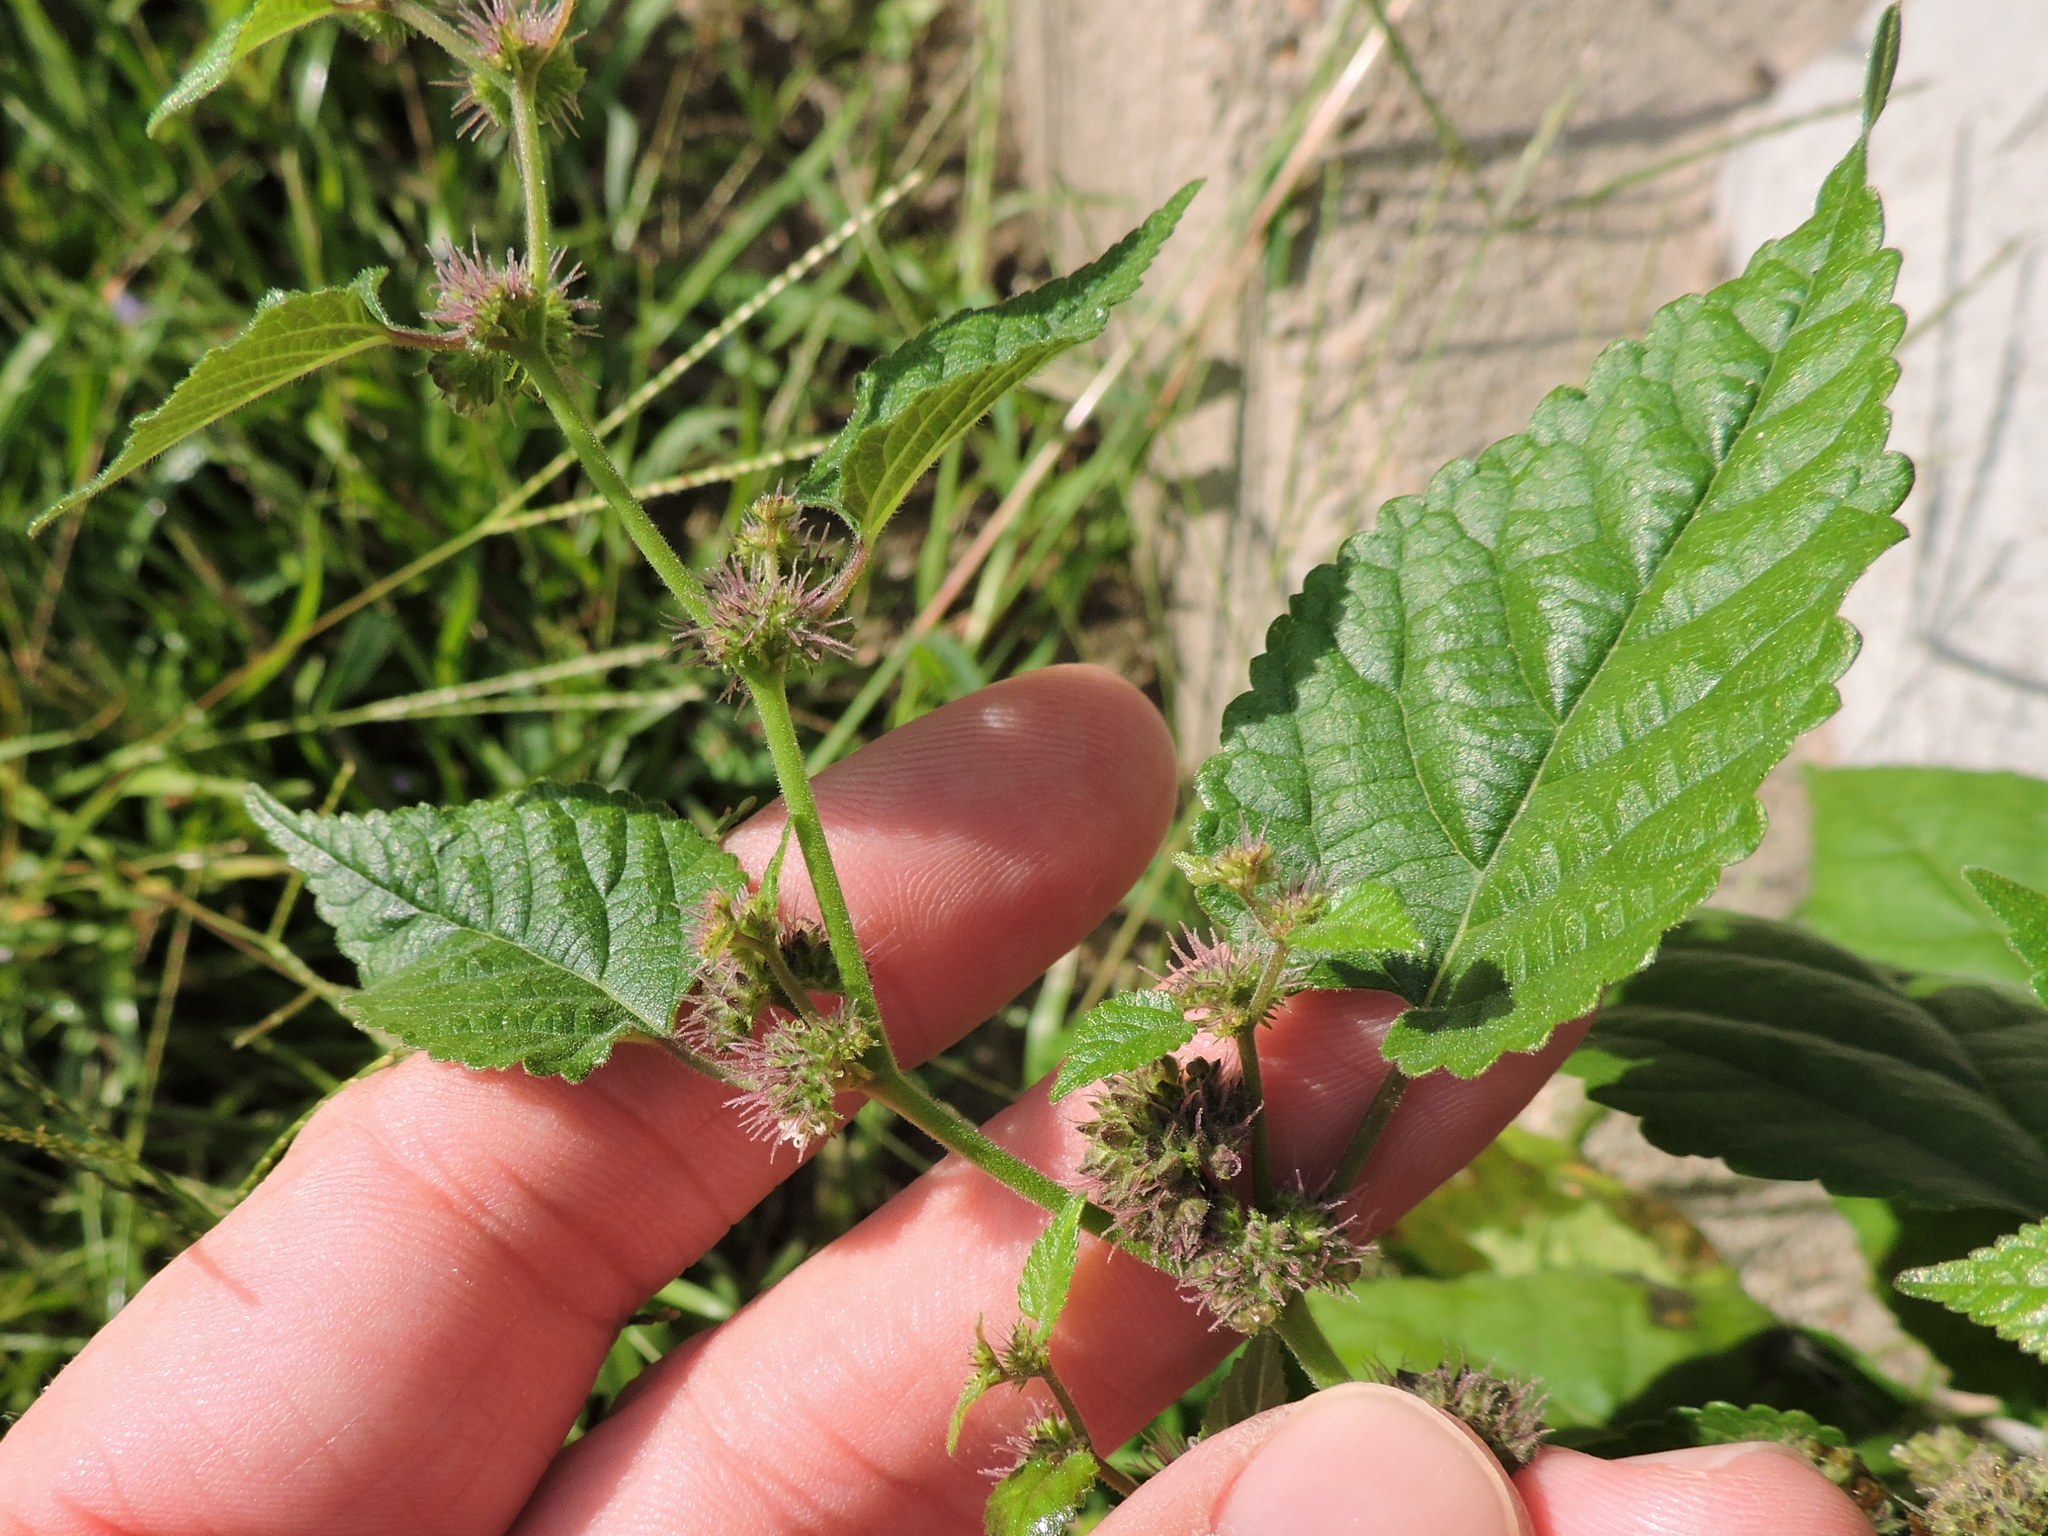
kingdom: Plantae
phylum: Tracheophyta
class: Magnoliopsida
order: Rosales
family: Moraceae
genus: Fatoua
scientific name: Fatoua villosa
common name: Hairy crabweed
